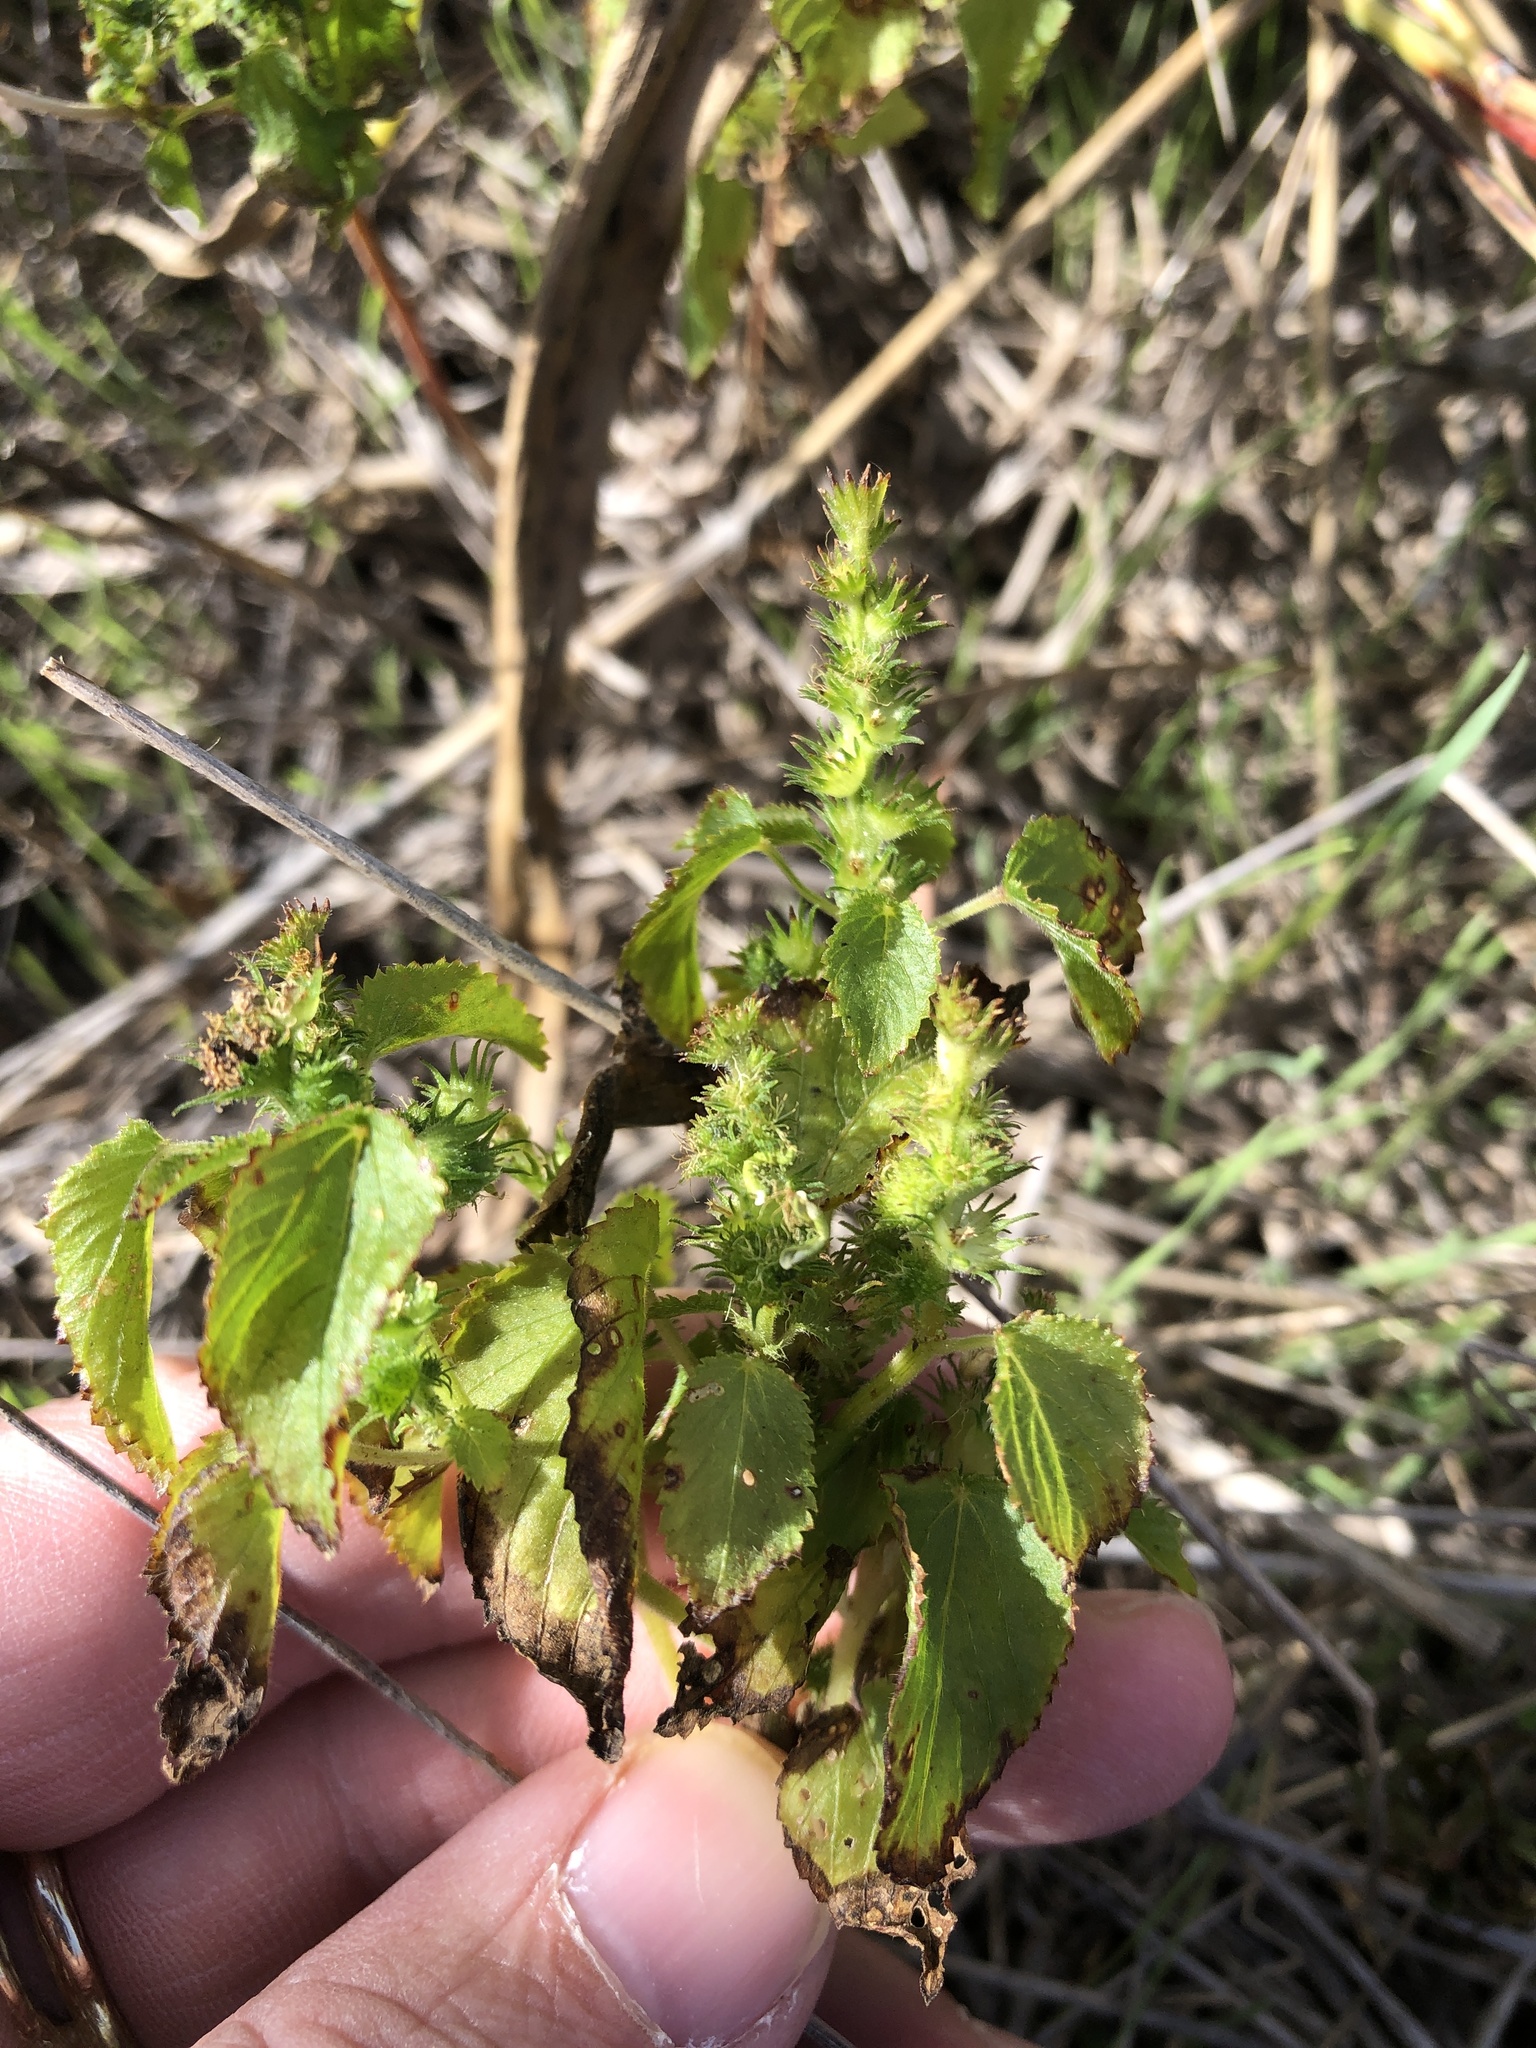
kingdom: Plantae
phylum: Tracheophyta
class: Magnoliopsida
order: Malpighiales
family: Euphorbiaceae
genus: Acalypha
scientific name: Acalypha ostryifolia
